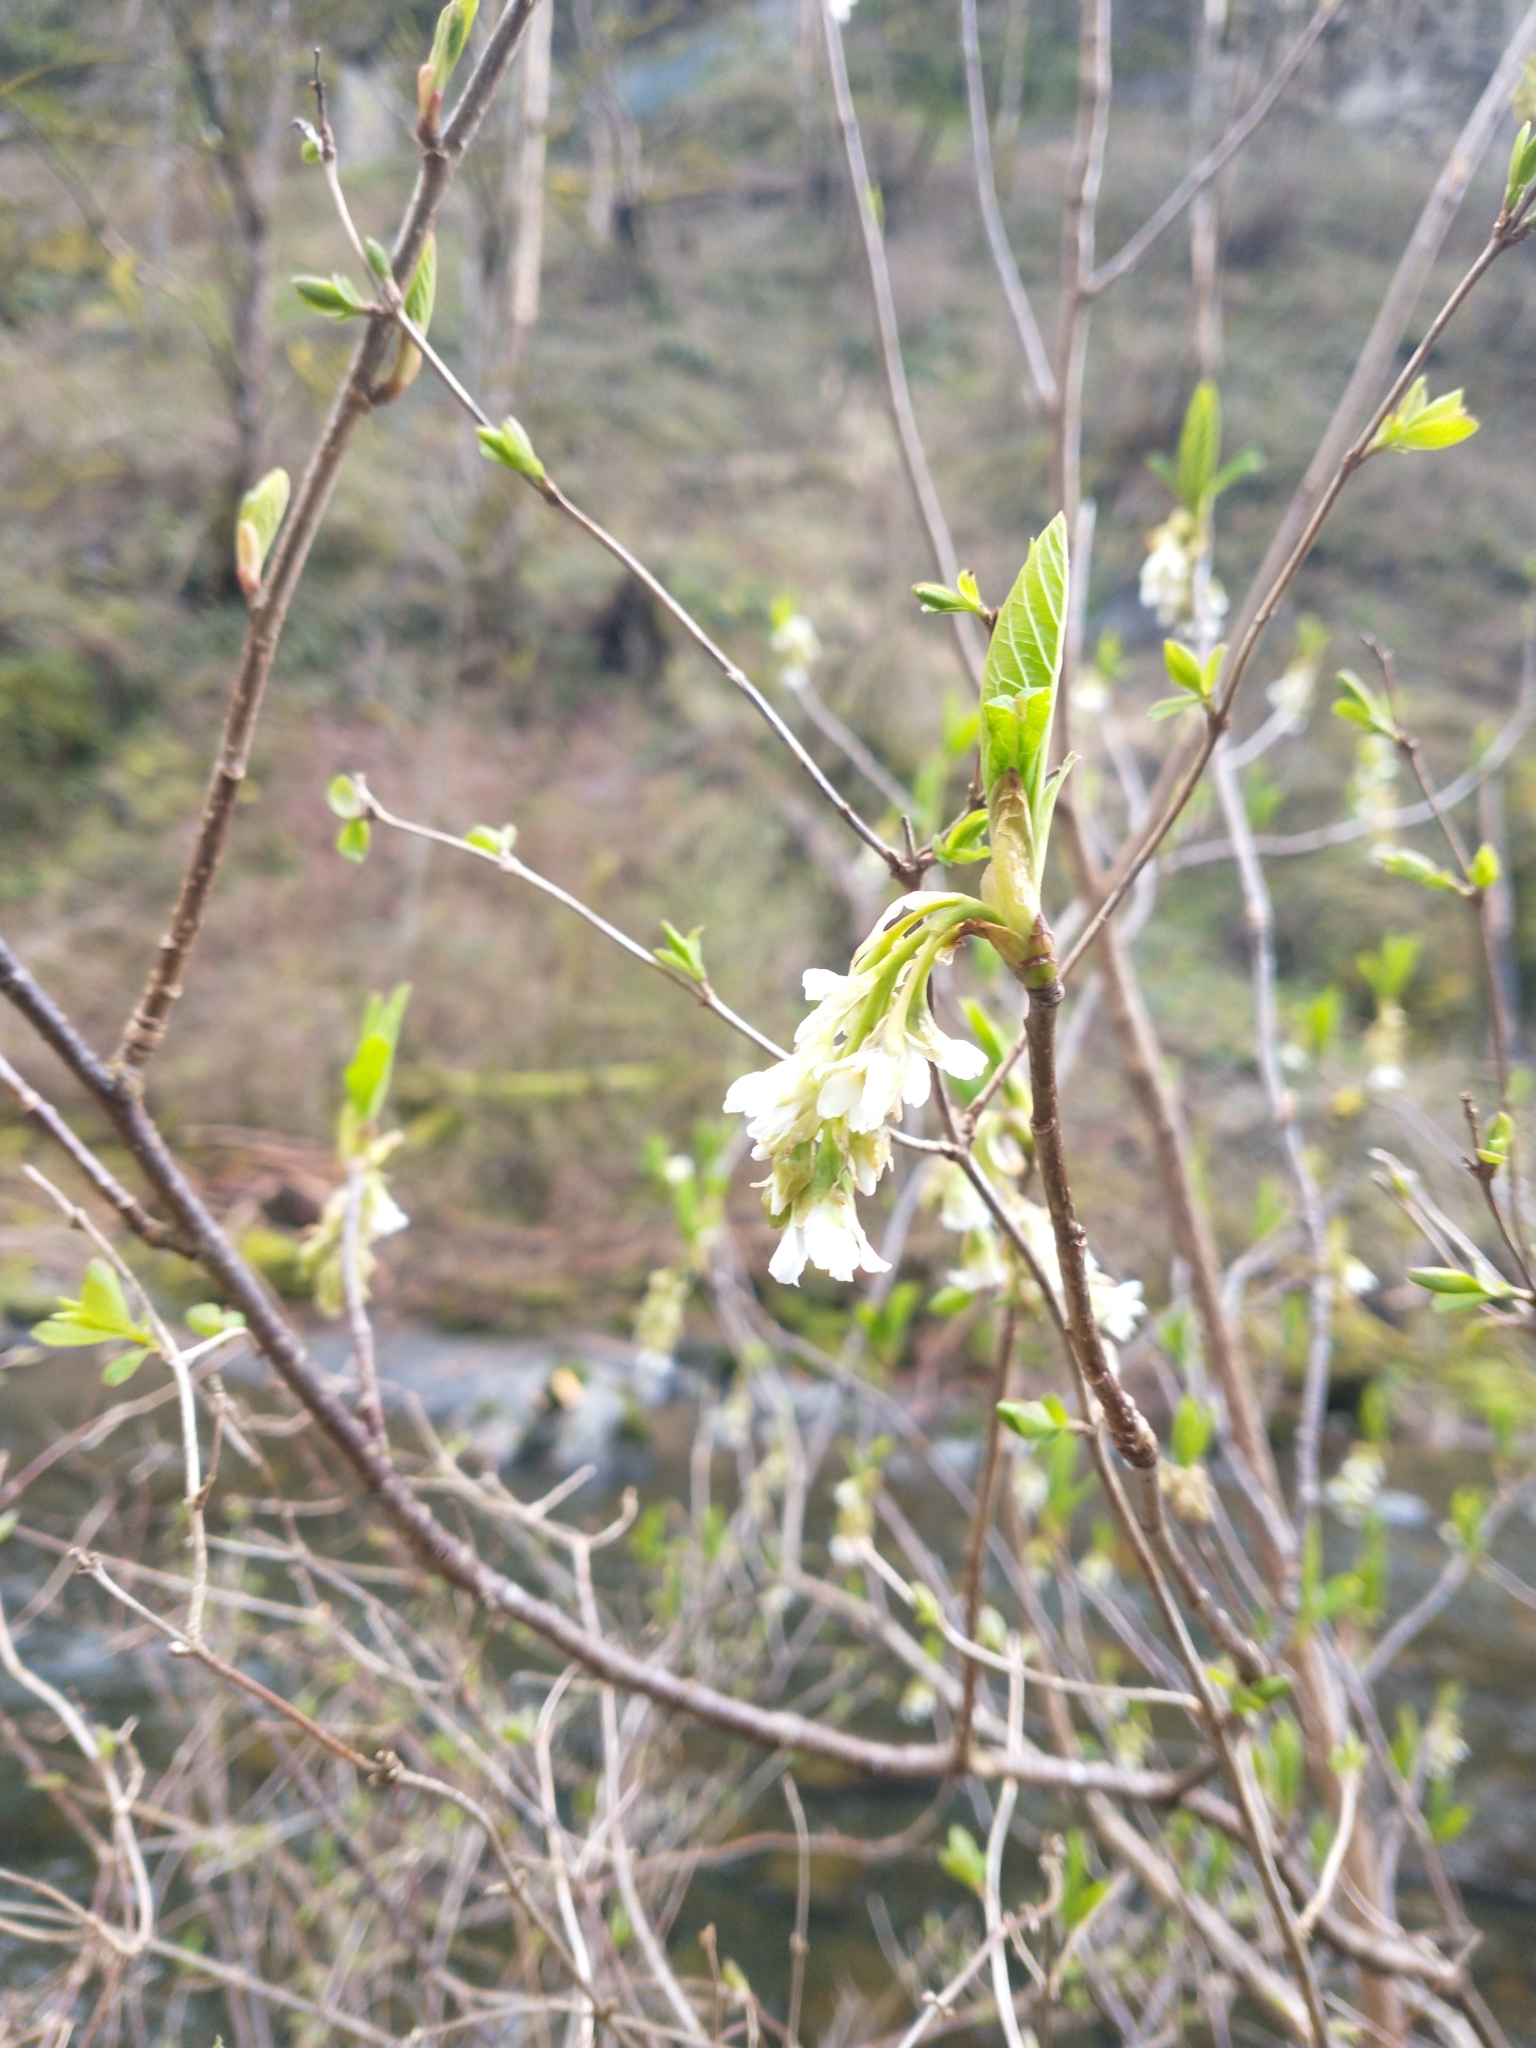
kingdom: Plantae
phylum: Tracheophyta
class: Magnoliopsida
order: Rosales
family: Rosaceae
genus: Oemleria
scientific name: Oemleria cerasiformis
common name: Osoberry
